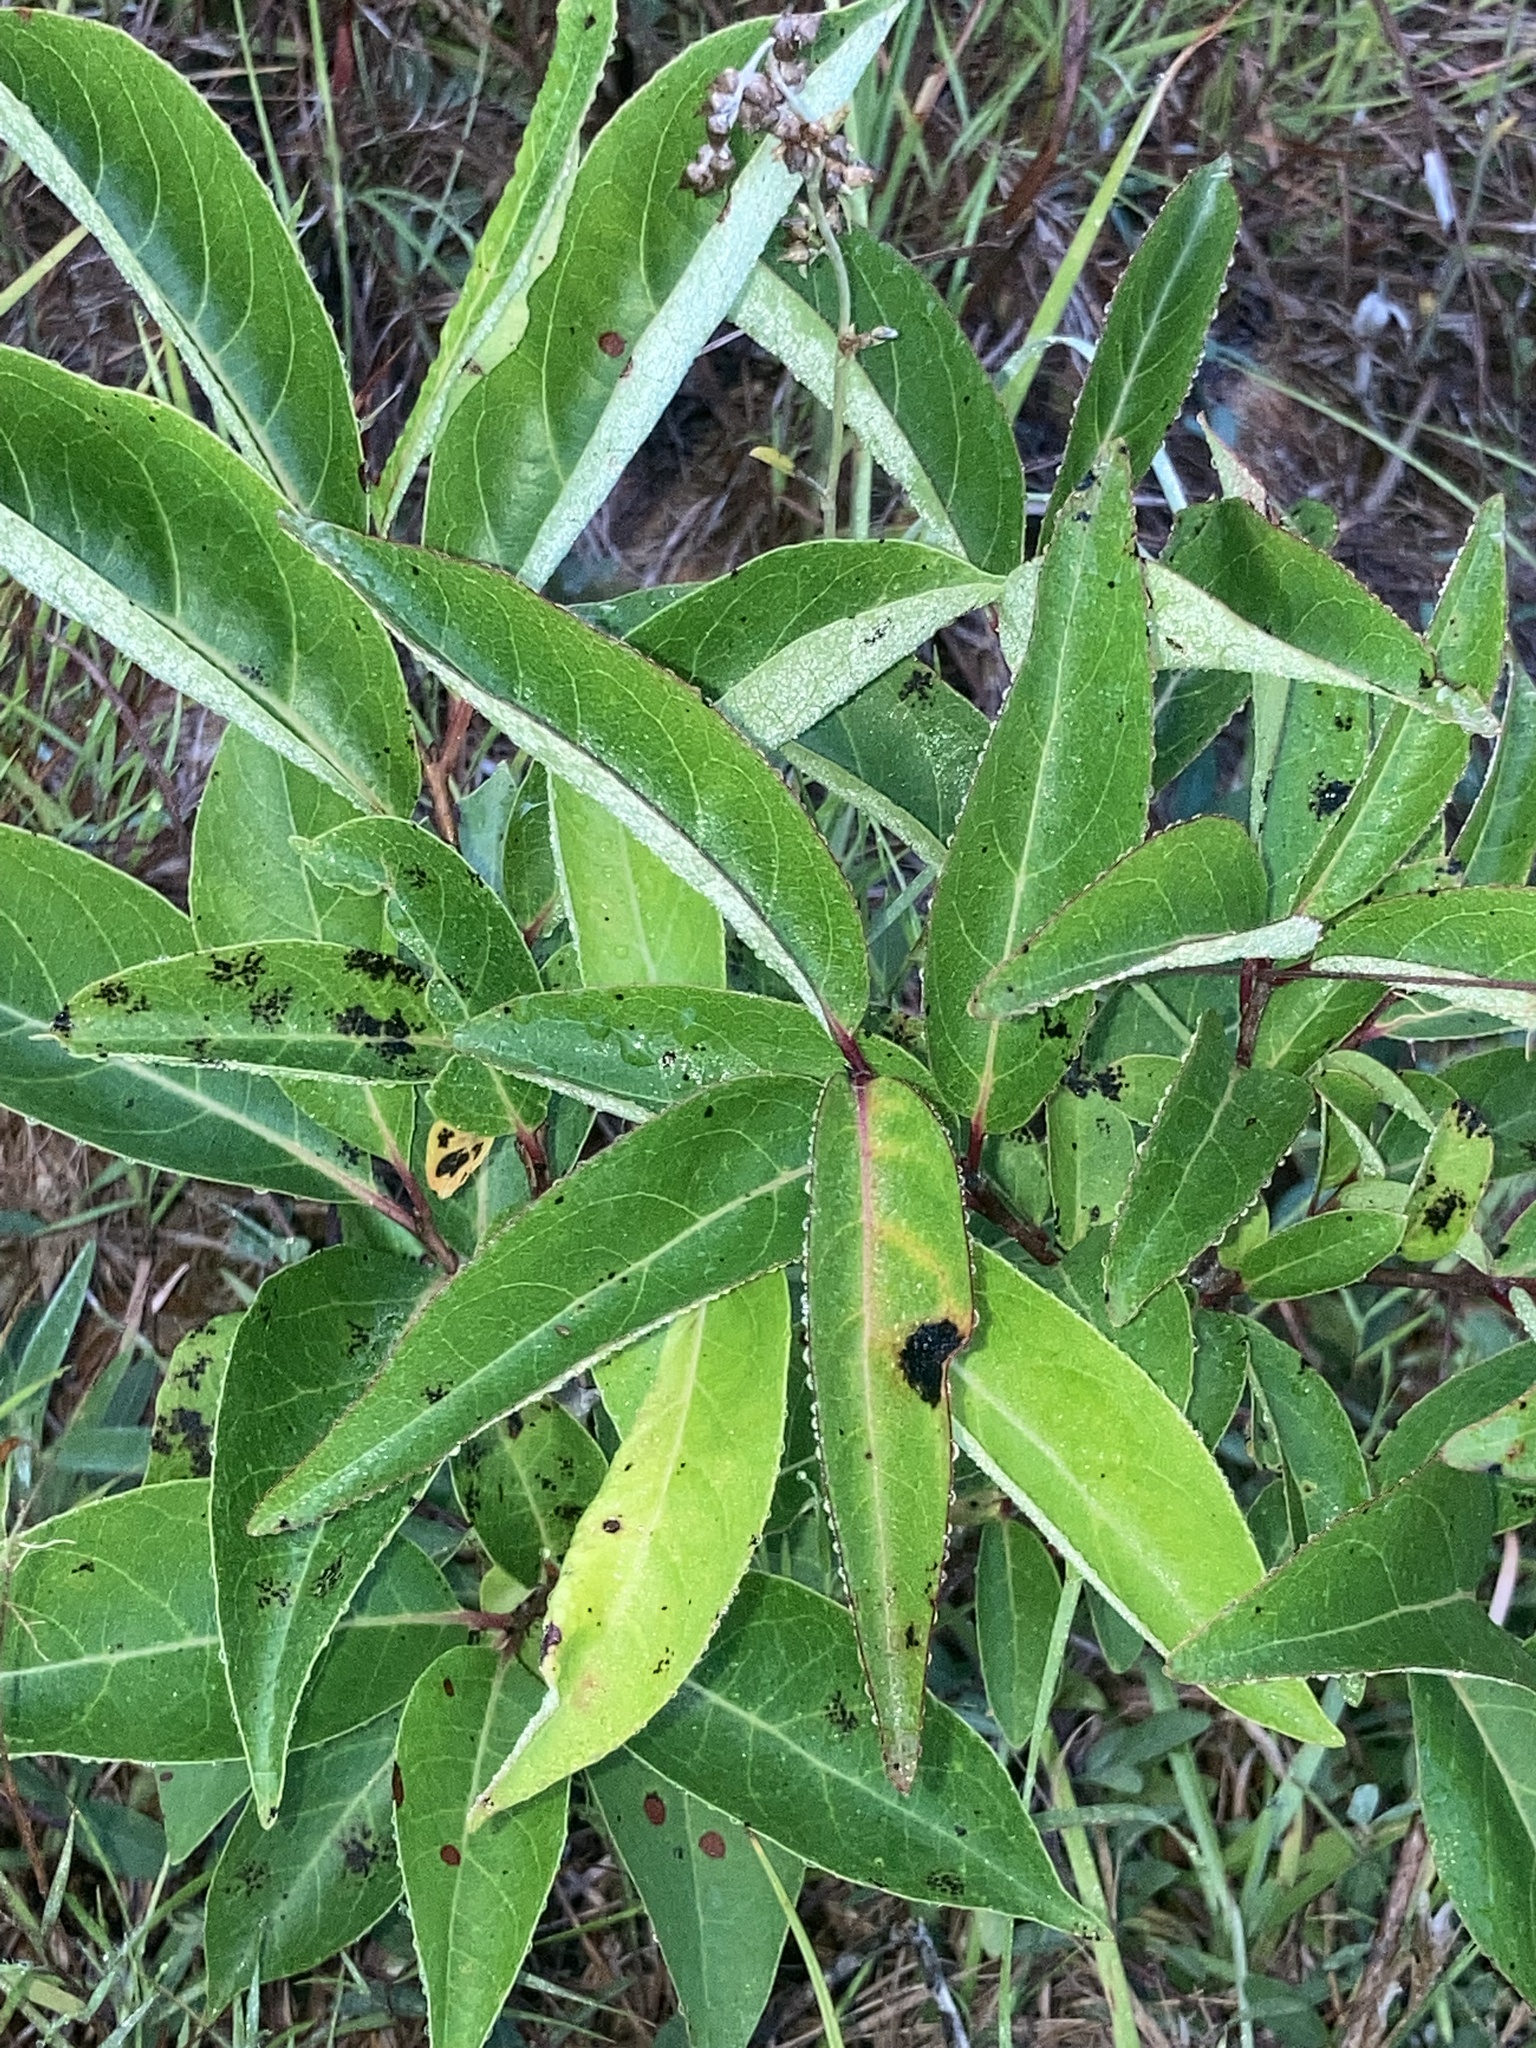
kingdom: Plantae
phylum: Tracheophyta
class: Magnoliopsida
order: Rosales
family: Rosaceae
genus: Aronia
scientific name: Aronia arbutifolia
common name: Red chokeberry
